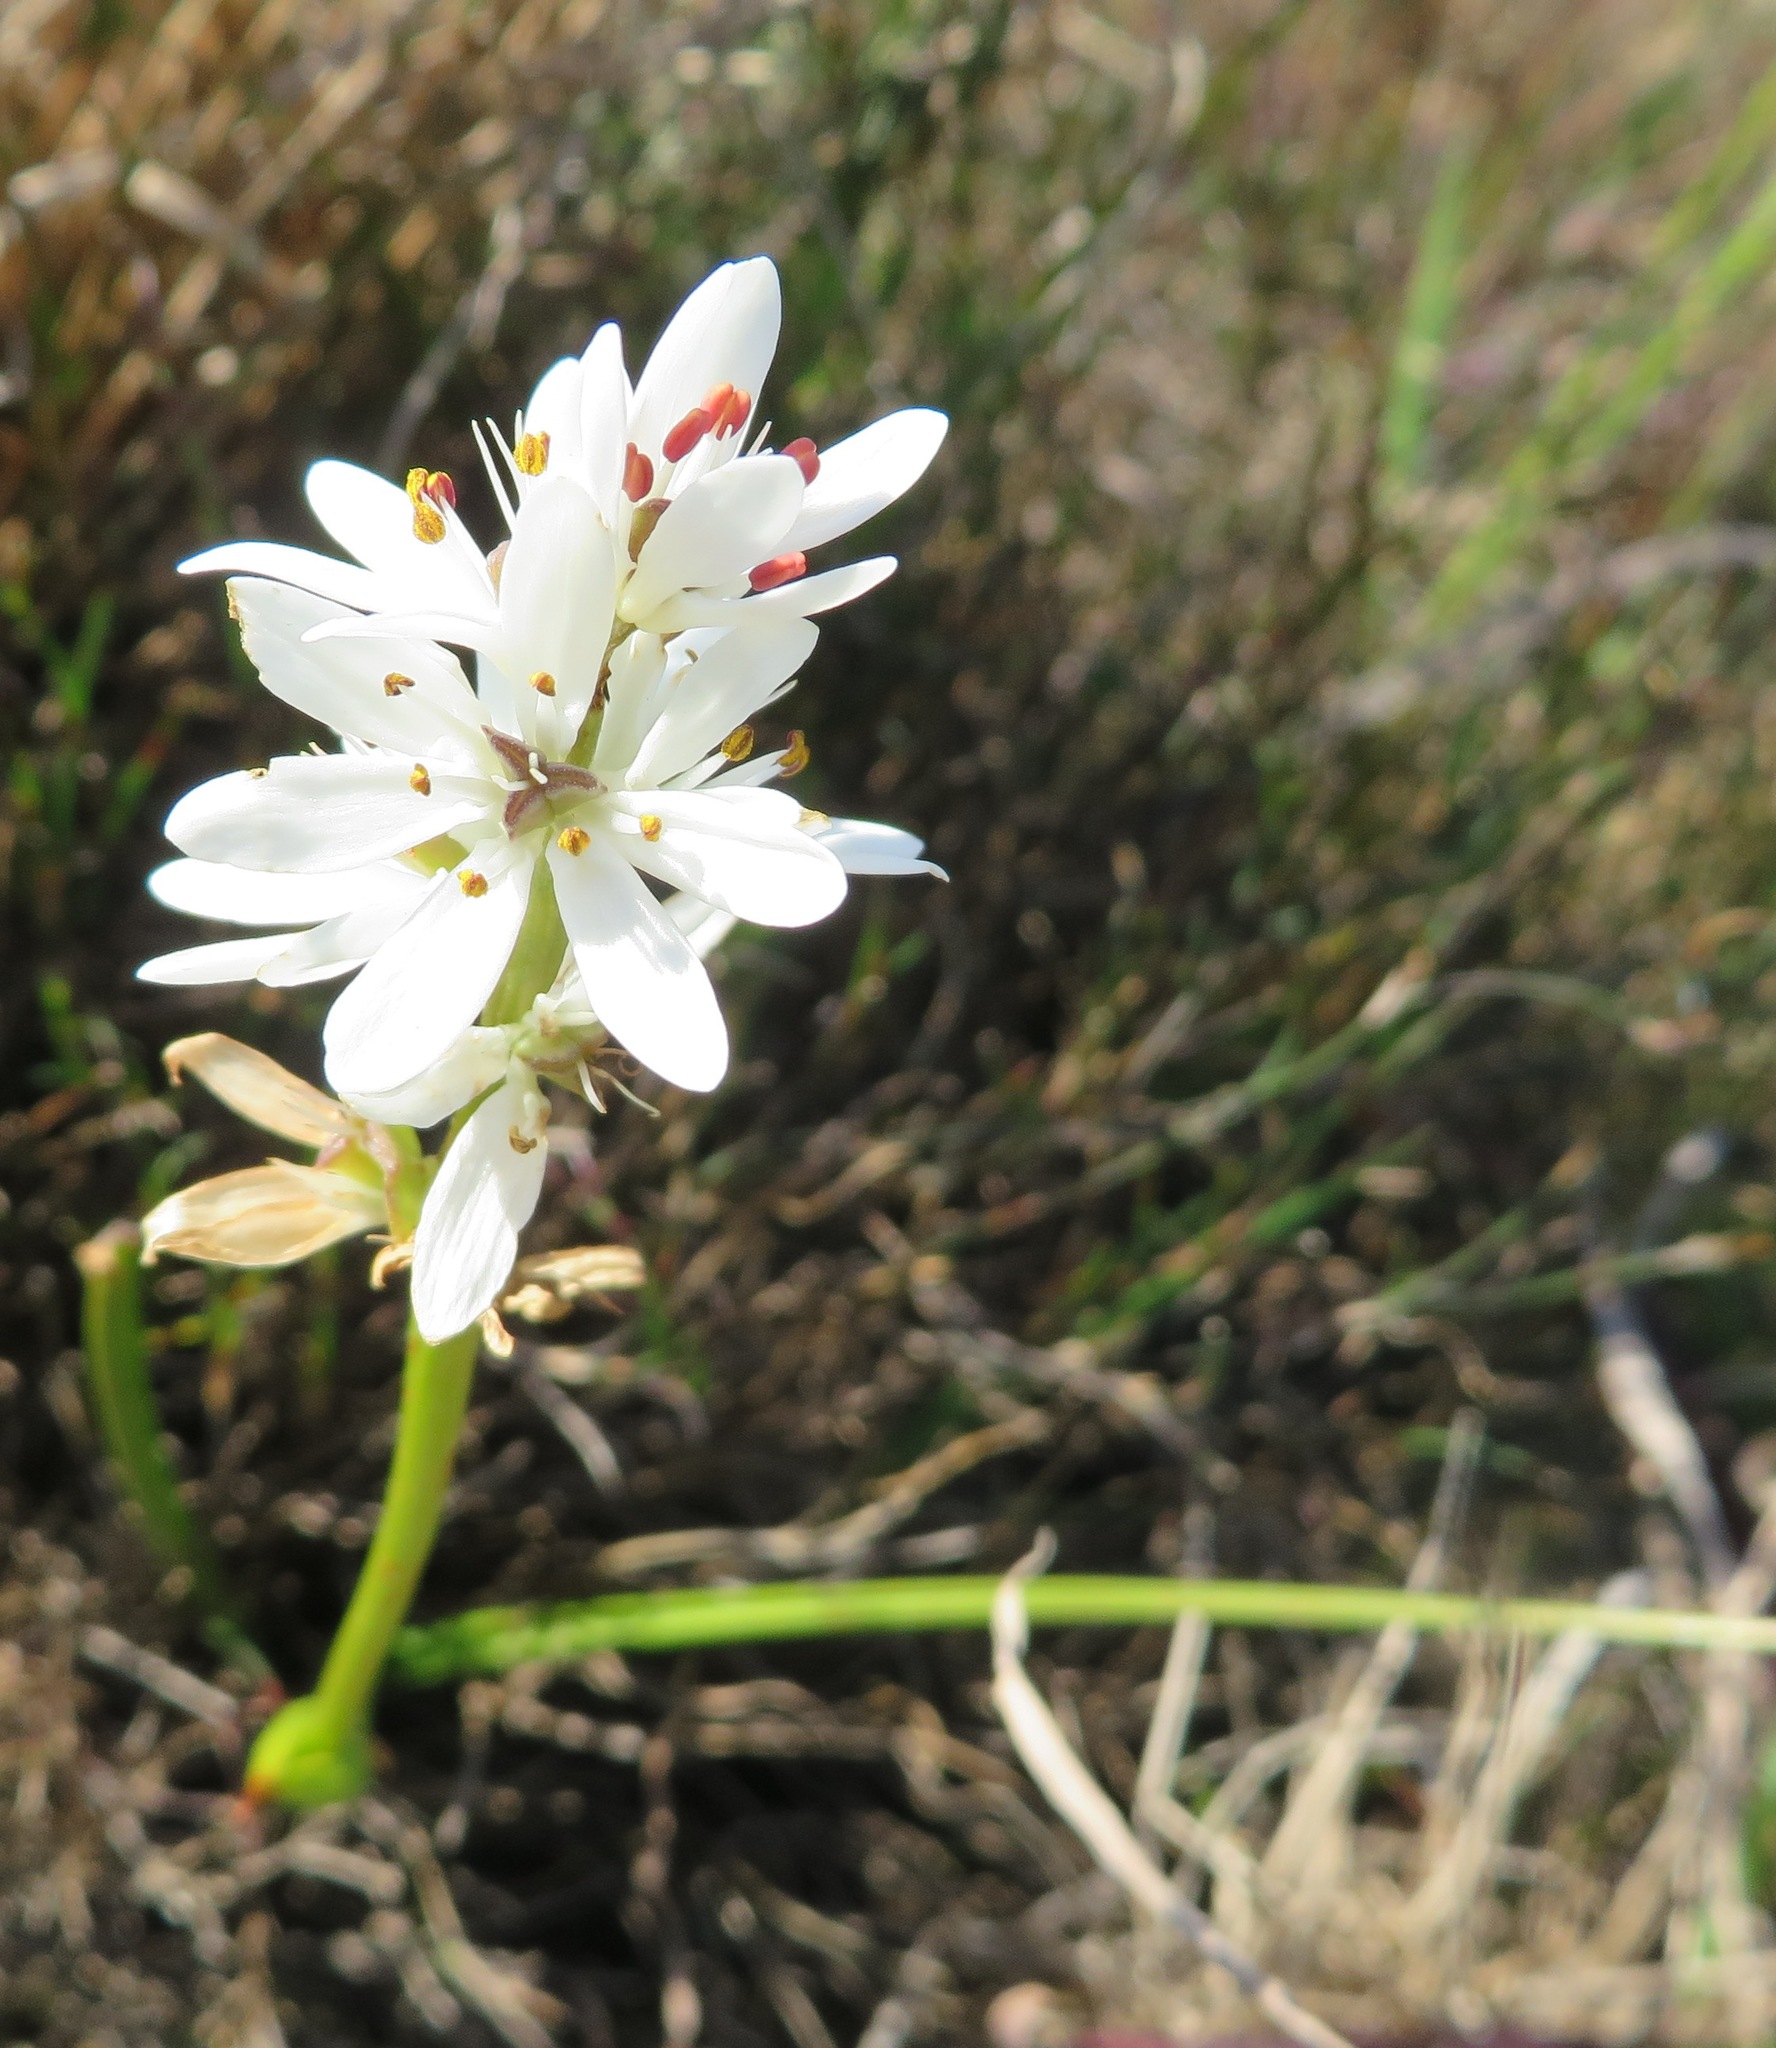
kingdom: Plantae
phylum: Tracheophyta
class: Liliopsida
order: Liliales
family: Colchicaceae
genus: Wurmbea
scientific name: Wurmbea punctata
